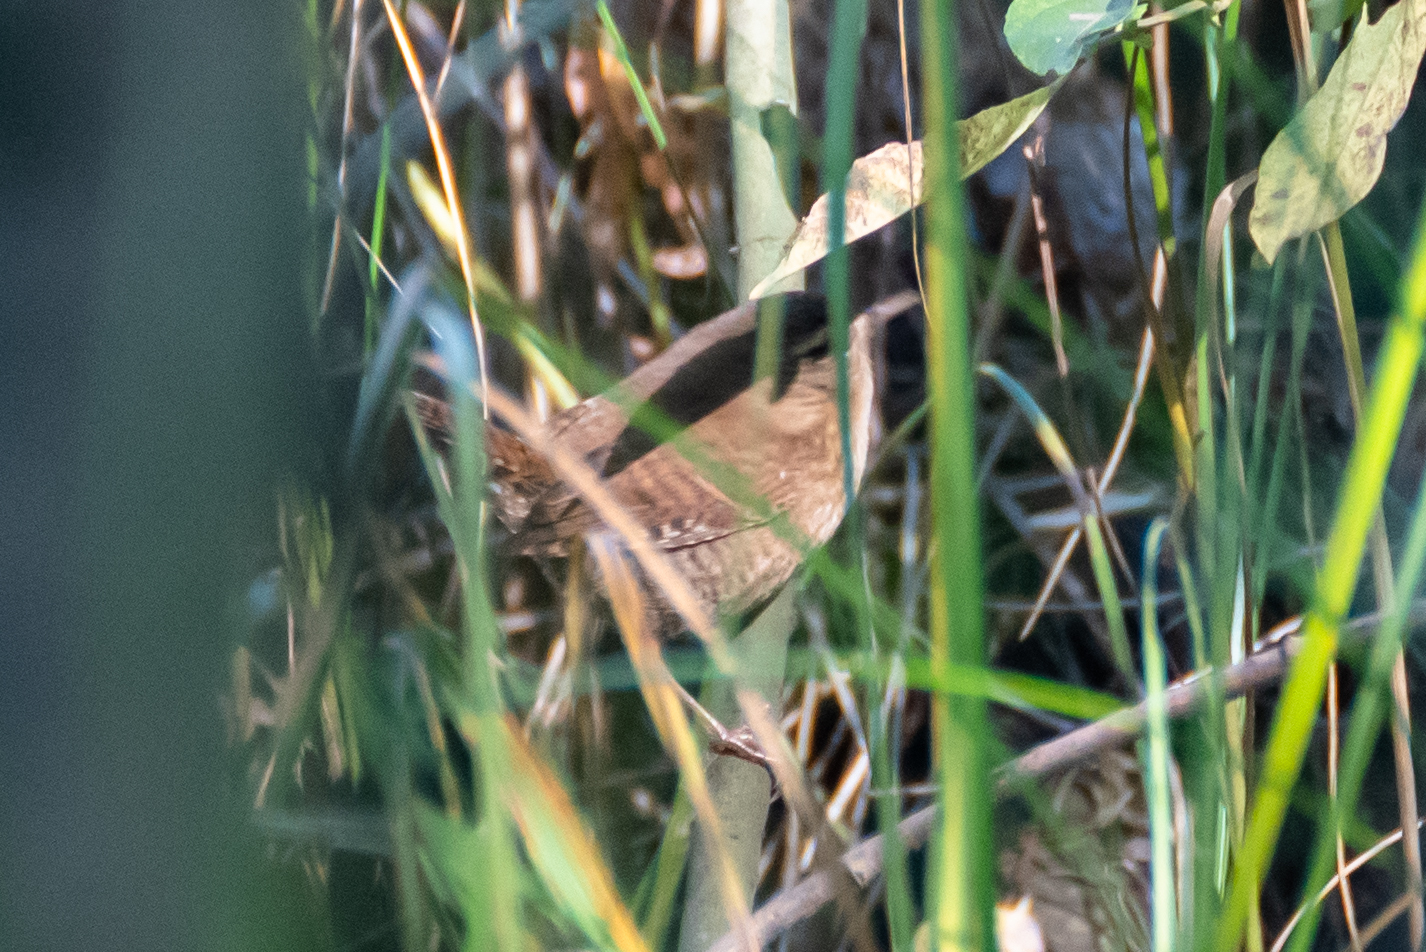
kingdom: Animalia
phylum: Chordata
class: Aves
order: Passeriformes
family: Troglodytidae
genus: Troglodytes
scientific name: Troglodytes troglodytes
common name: Eurasian wren
